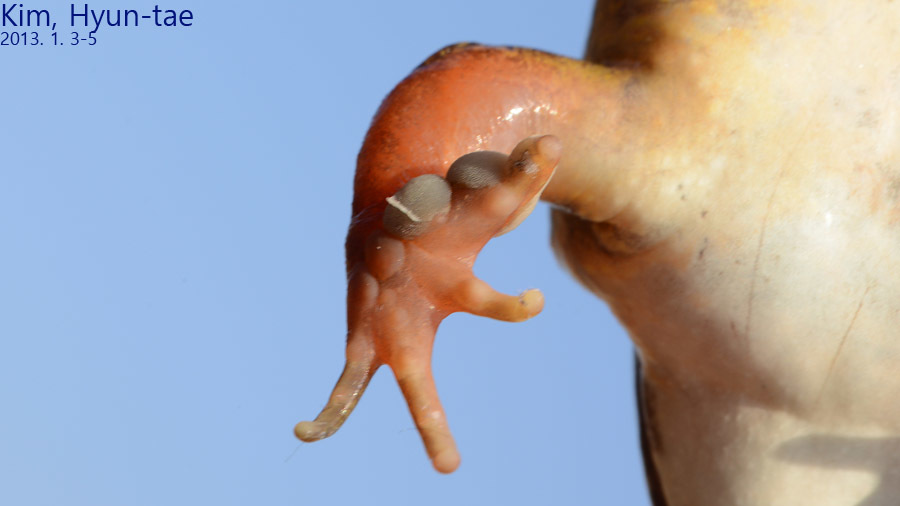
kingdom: Animalia
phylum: Chordata
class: Amphibia
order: Anura
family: Ranidae
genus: Rana
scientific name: Rana uenoi
